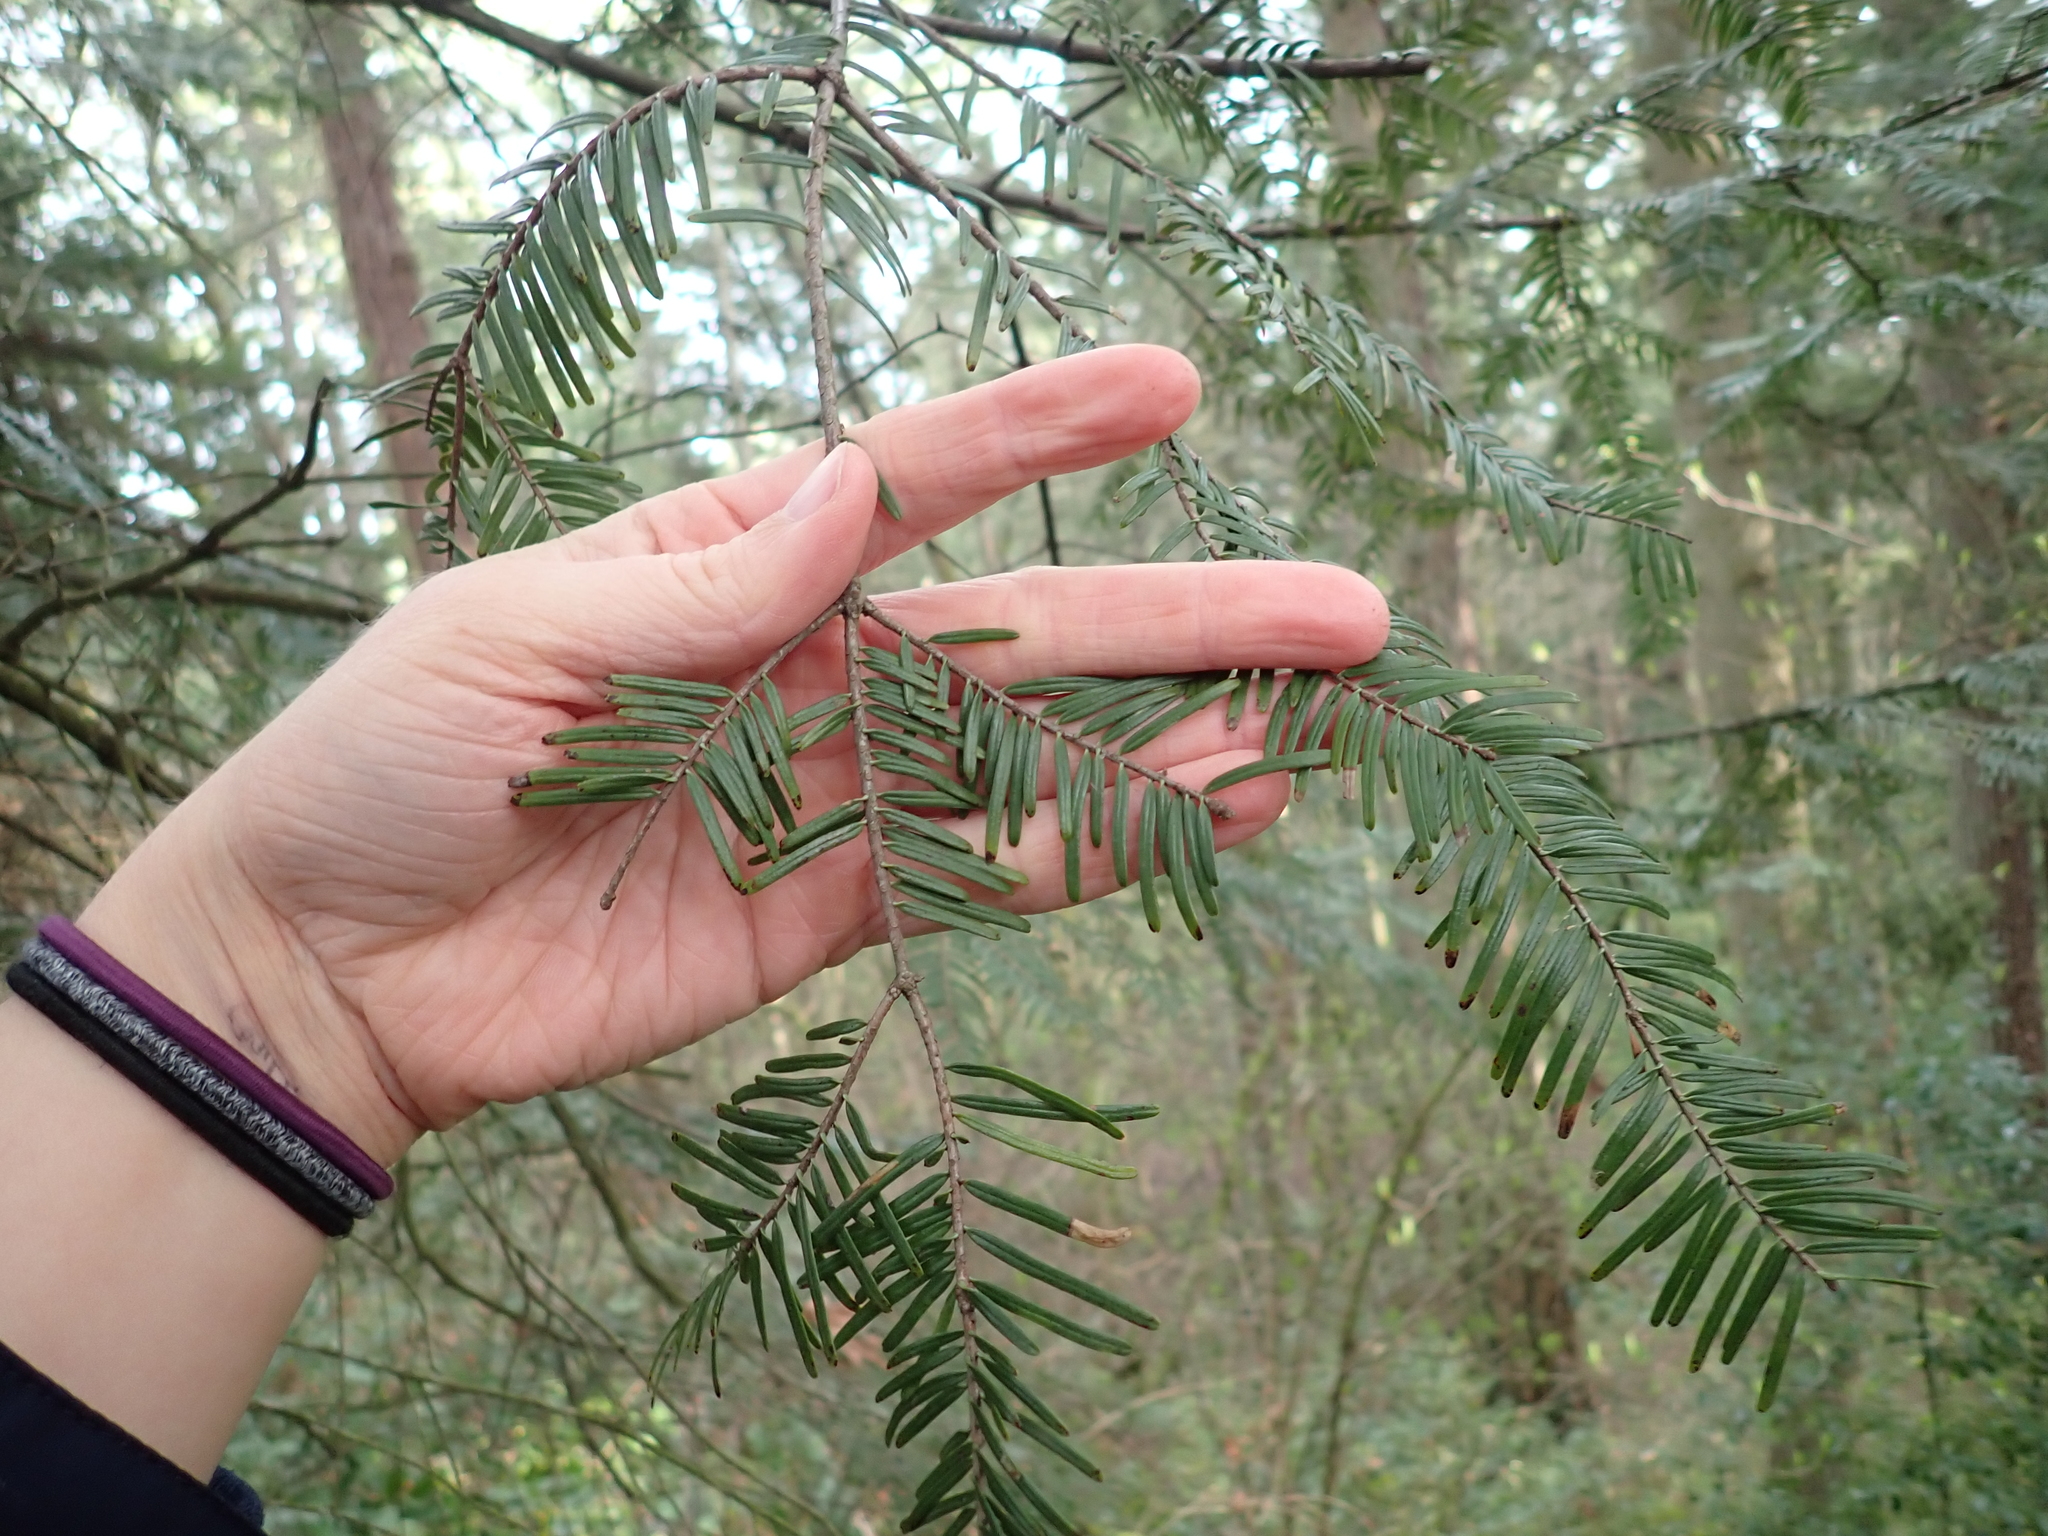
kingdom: Plantae
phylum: Tracheophyta
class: Pinopsida
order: Pinales
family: Pinaceae
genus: Abies
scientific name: Abies grandis
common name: Giant fir
